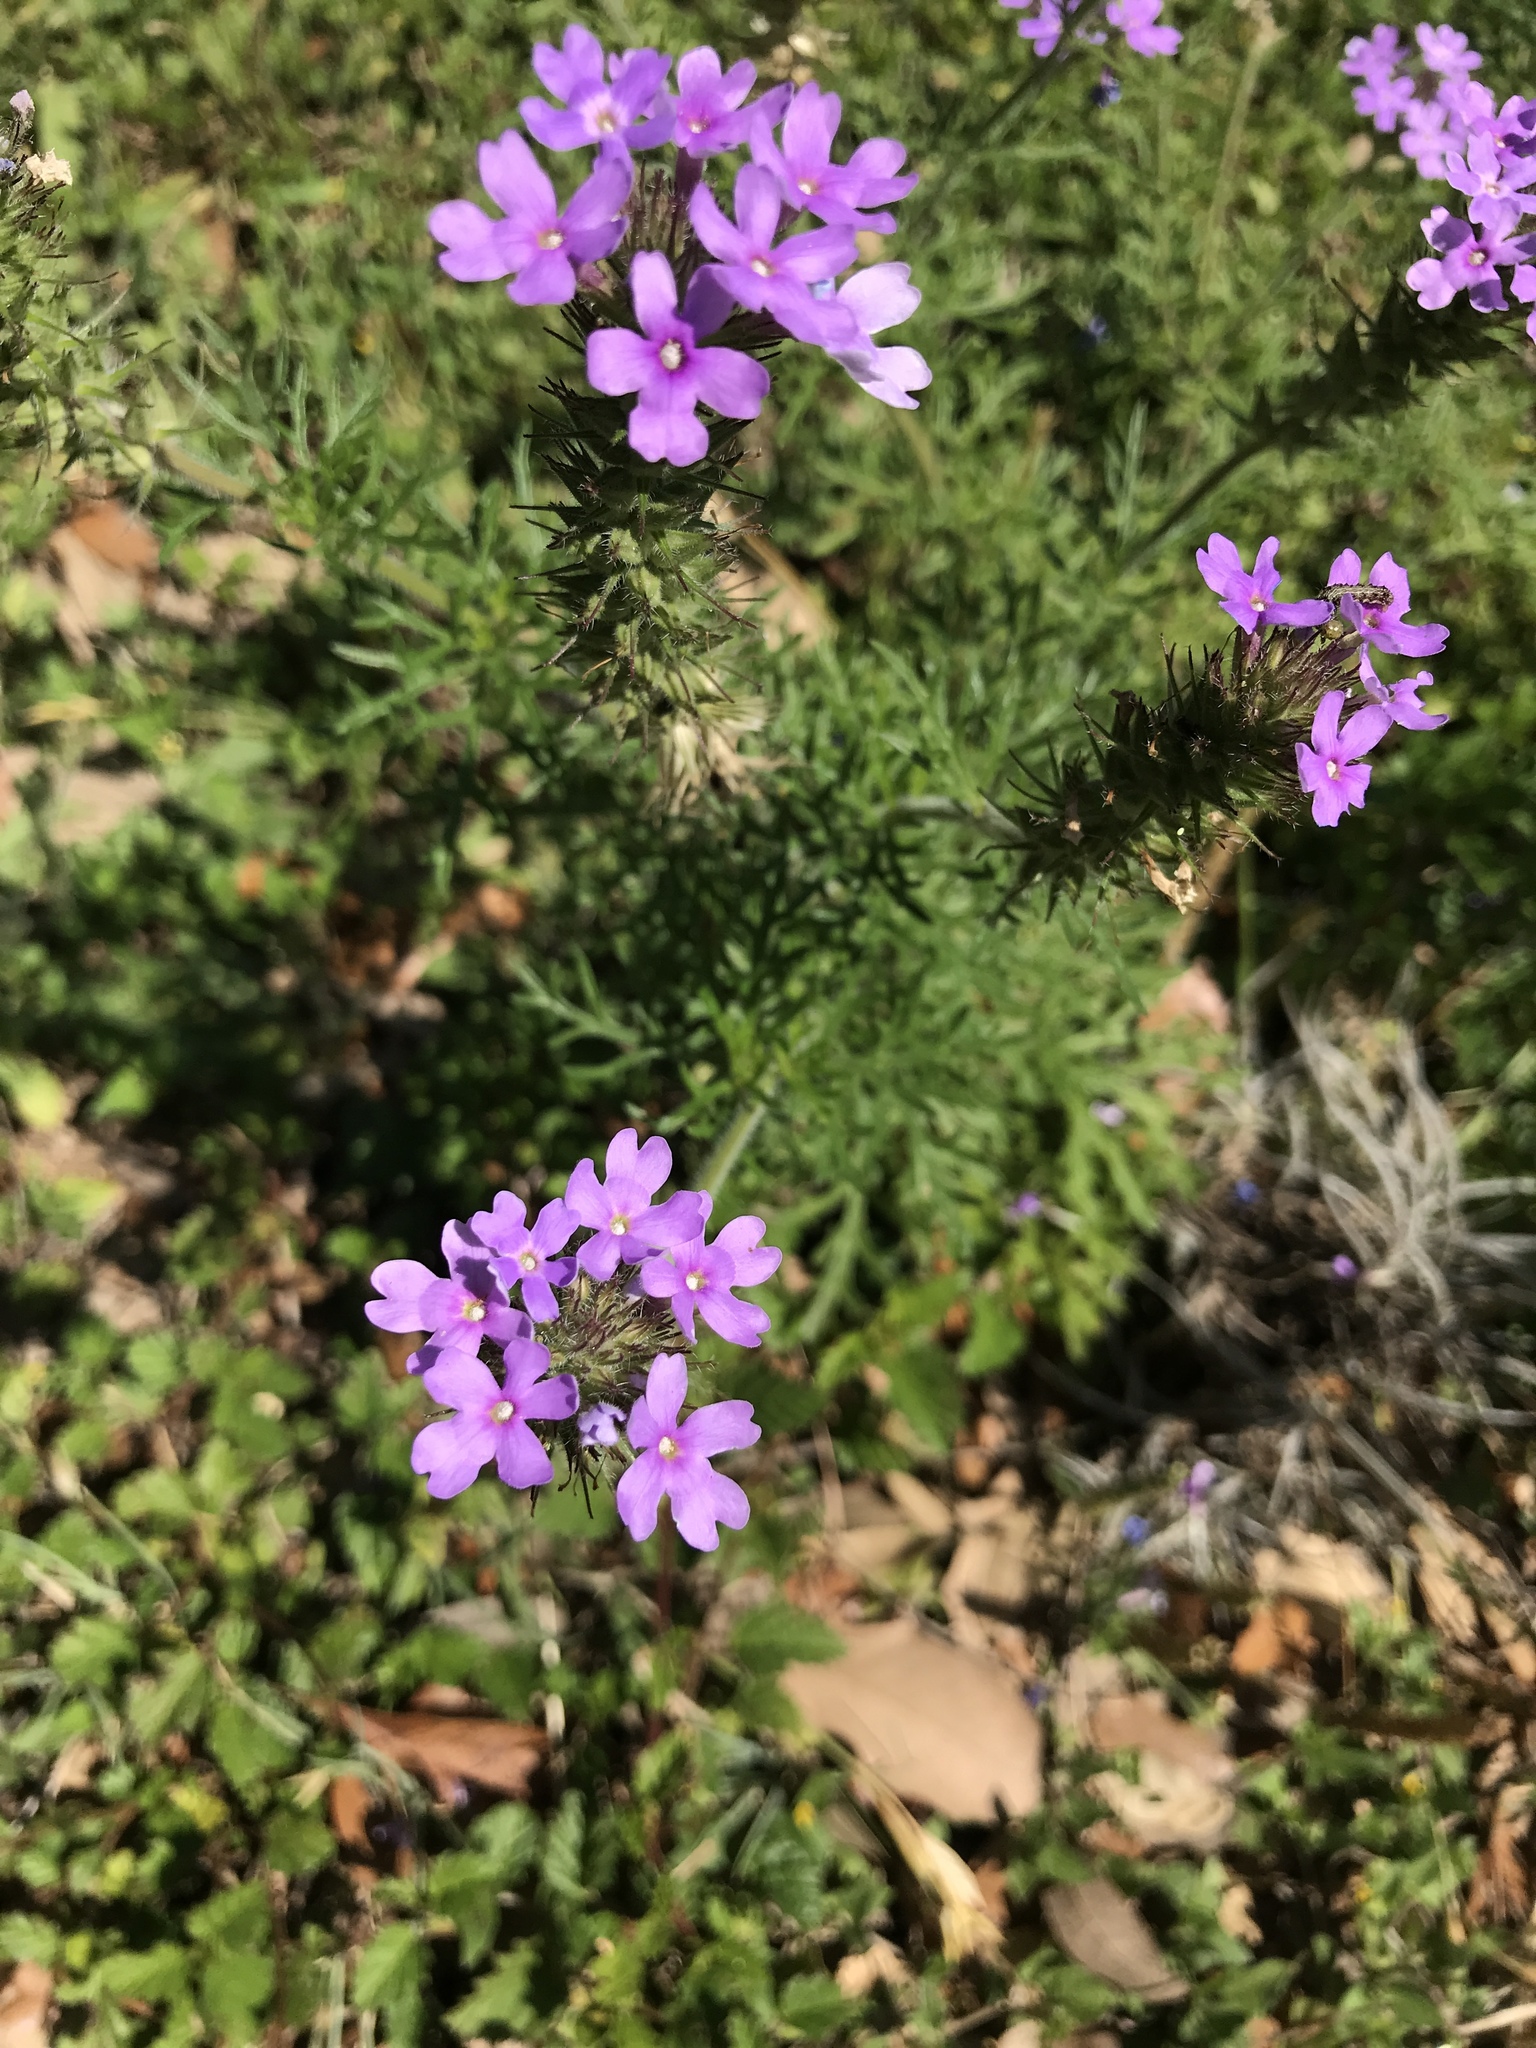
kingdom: Plantae
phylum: Tracheophyta
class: Magnoliopsida
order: Lamiales
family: Verbenaceae
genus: Verbena
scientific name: Verbena bipinnatifida
